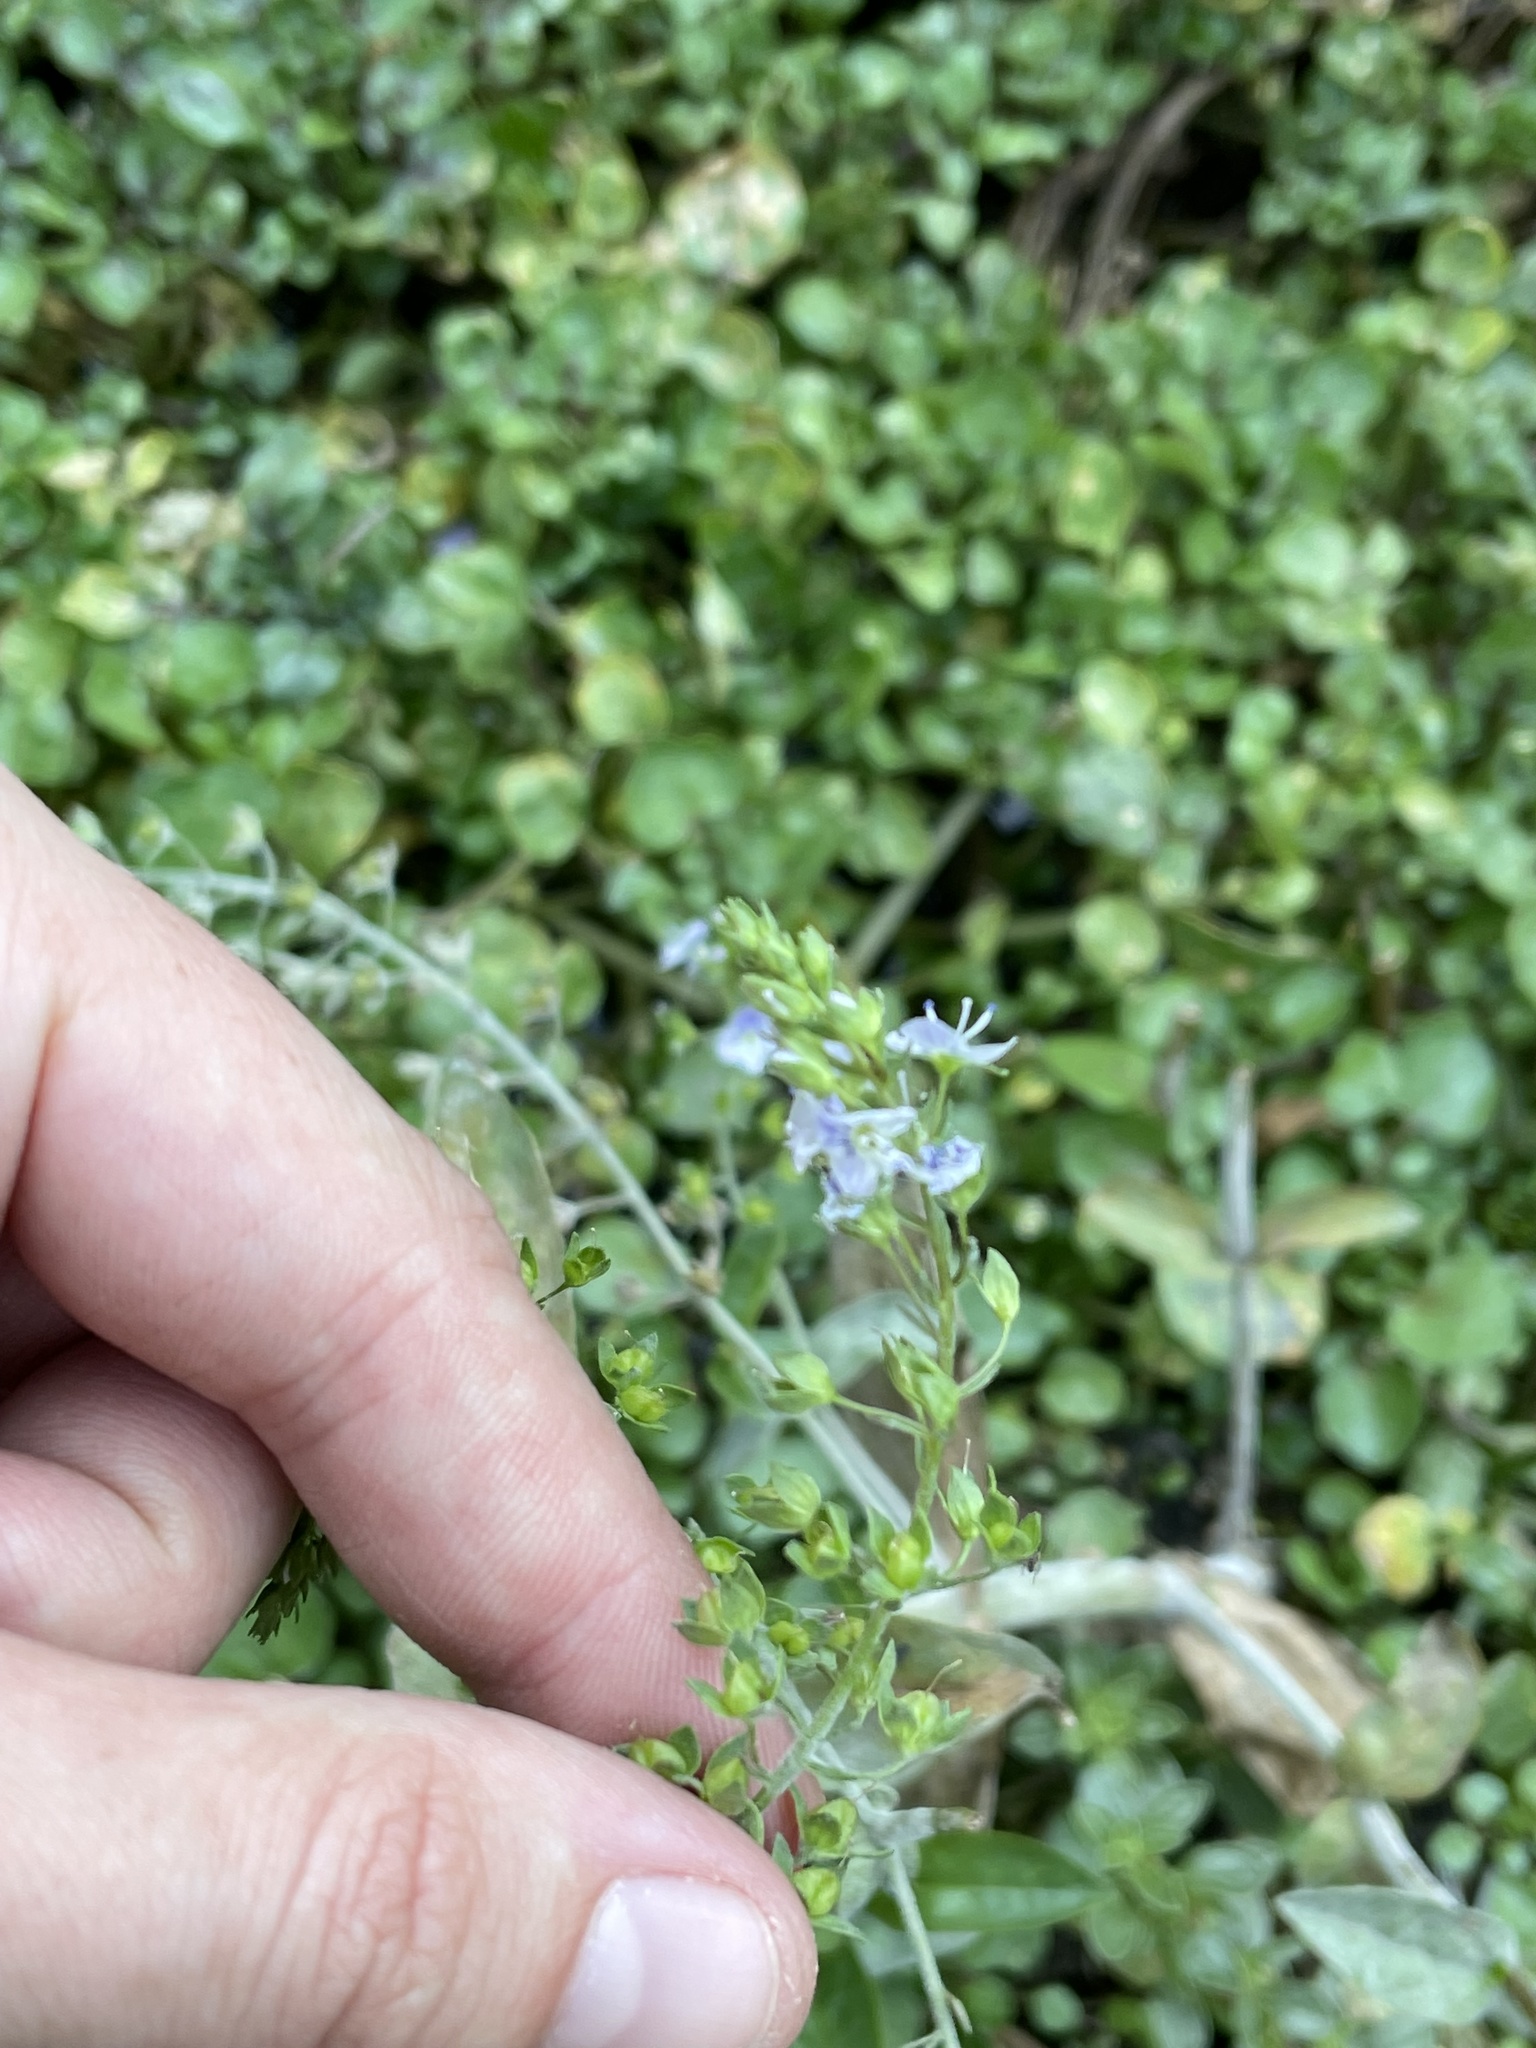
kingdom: Plantae
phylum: Tracheophyta
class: Magnoliopsida
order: Lamiales
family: Plantaginaceae
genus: Veronica
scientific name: Veronica anagallis-aquatica
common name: Water speedwell
